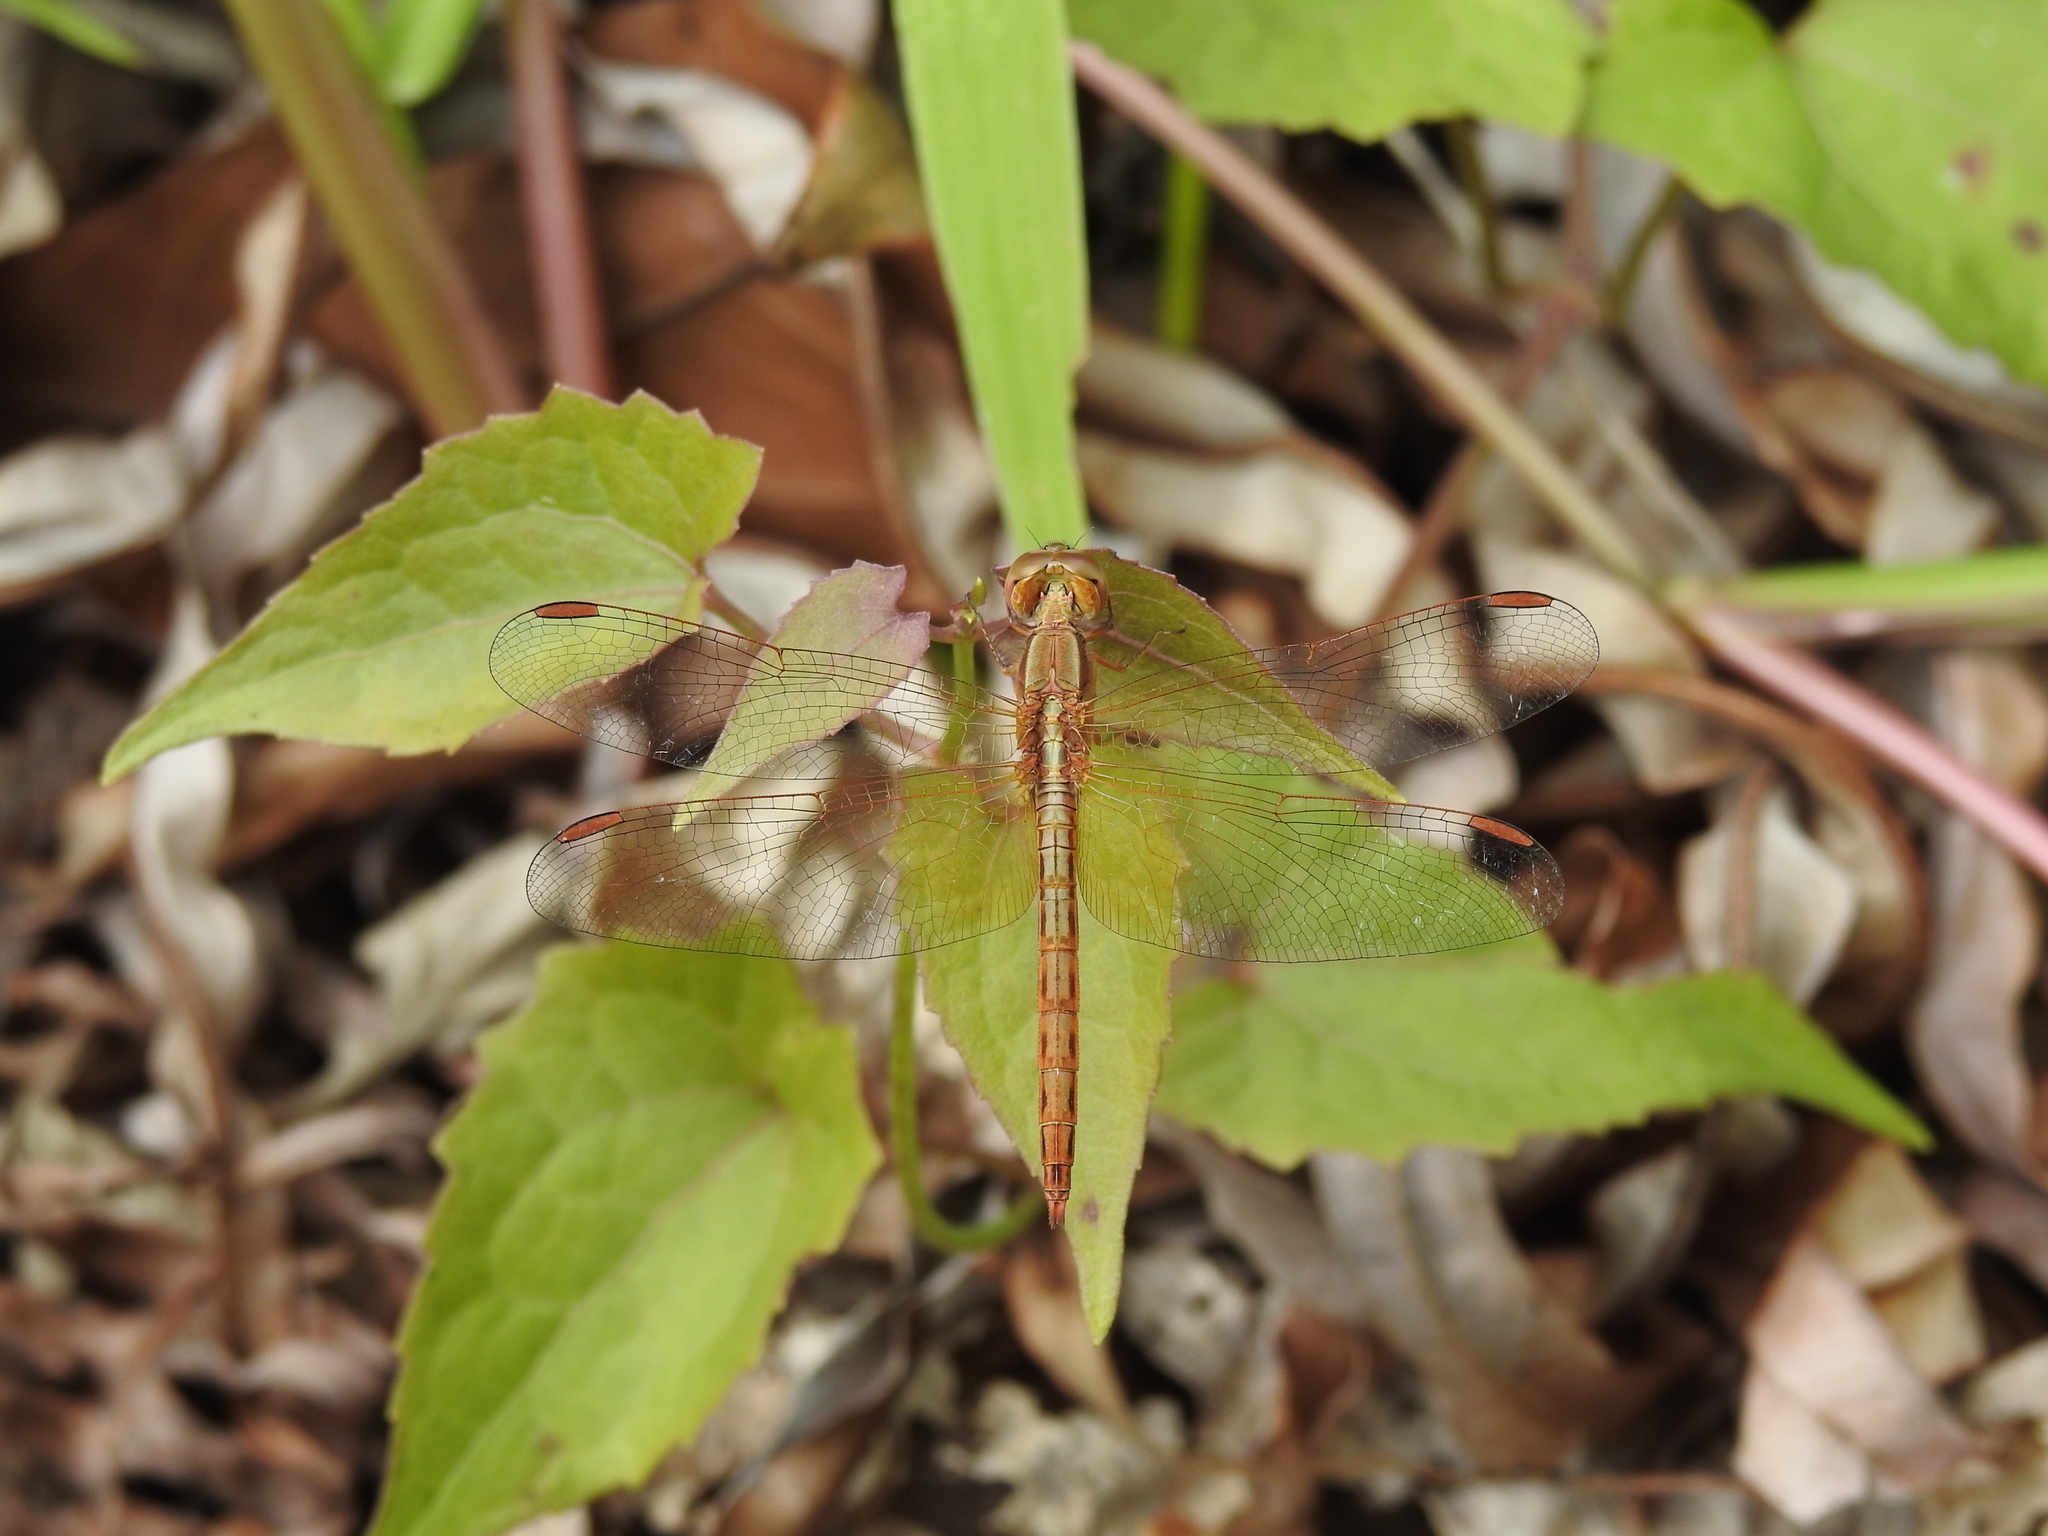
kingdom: Animalia
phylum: Arthropoda
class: Insecta
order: Odonata
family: Libellulidae
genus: Neurothemis
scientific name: Neurothemis intermedia
